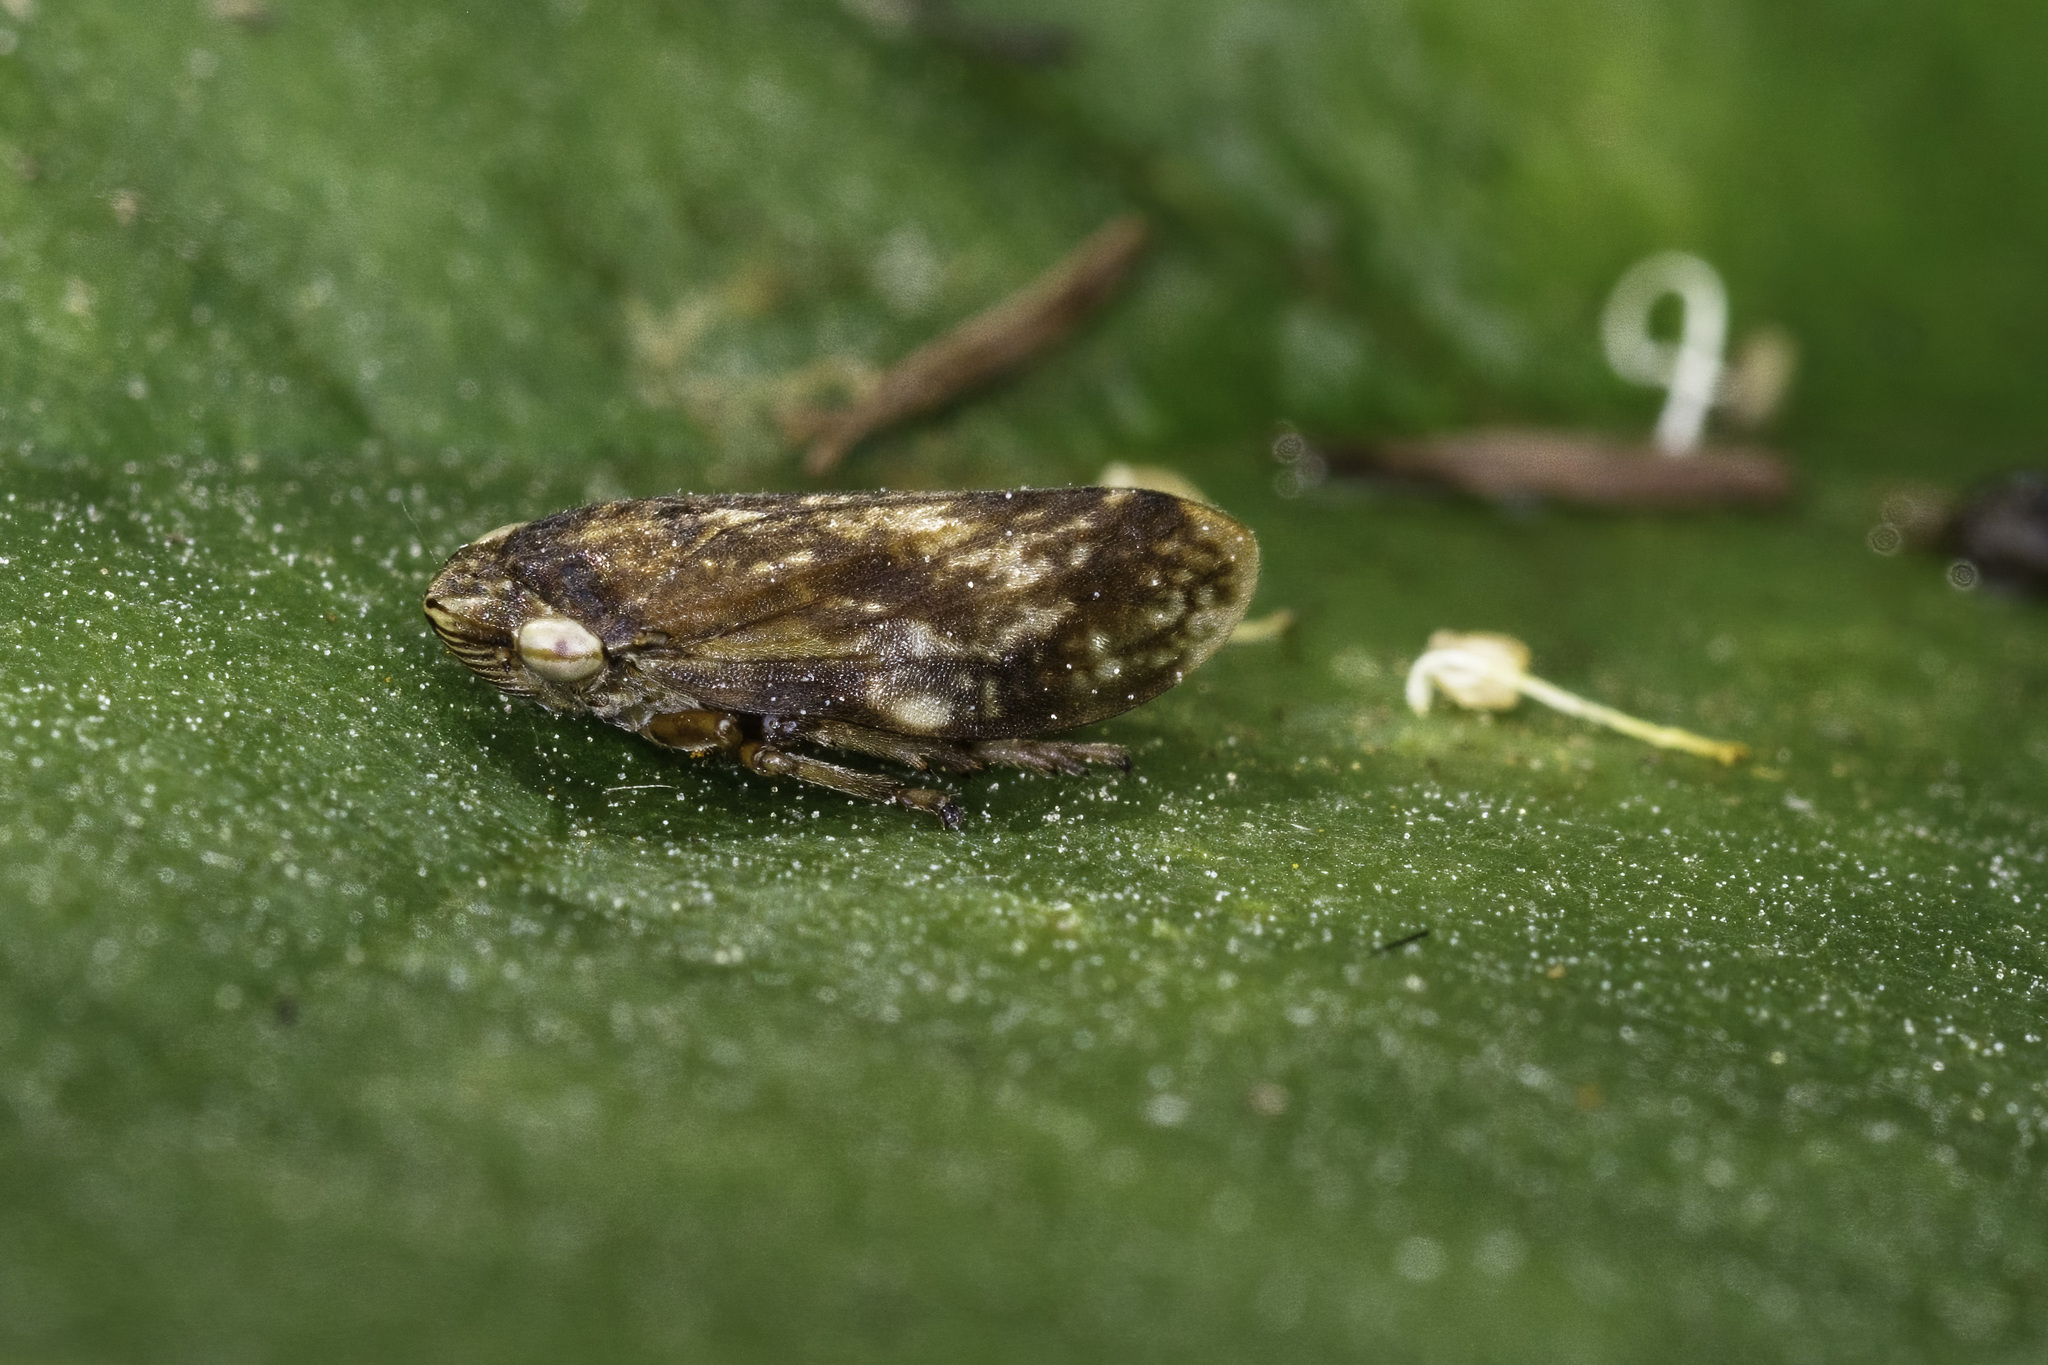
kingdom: Animalia
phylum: Arthropoda
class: Insecta
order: Hemiptera
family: Aphrophoridae
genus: Philaenus
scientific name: Philaenus spumarius
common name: Meadow spittlebug
